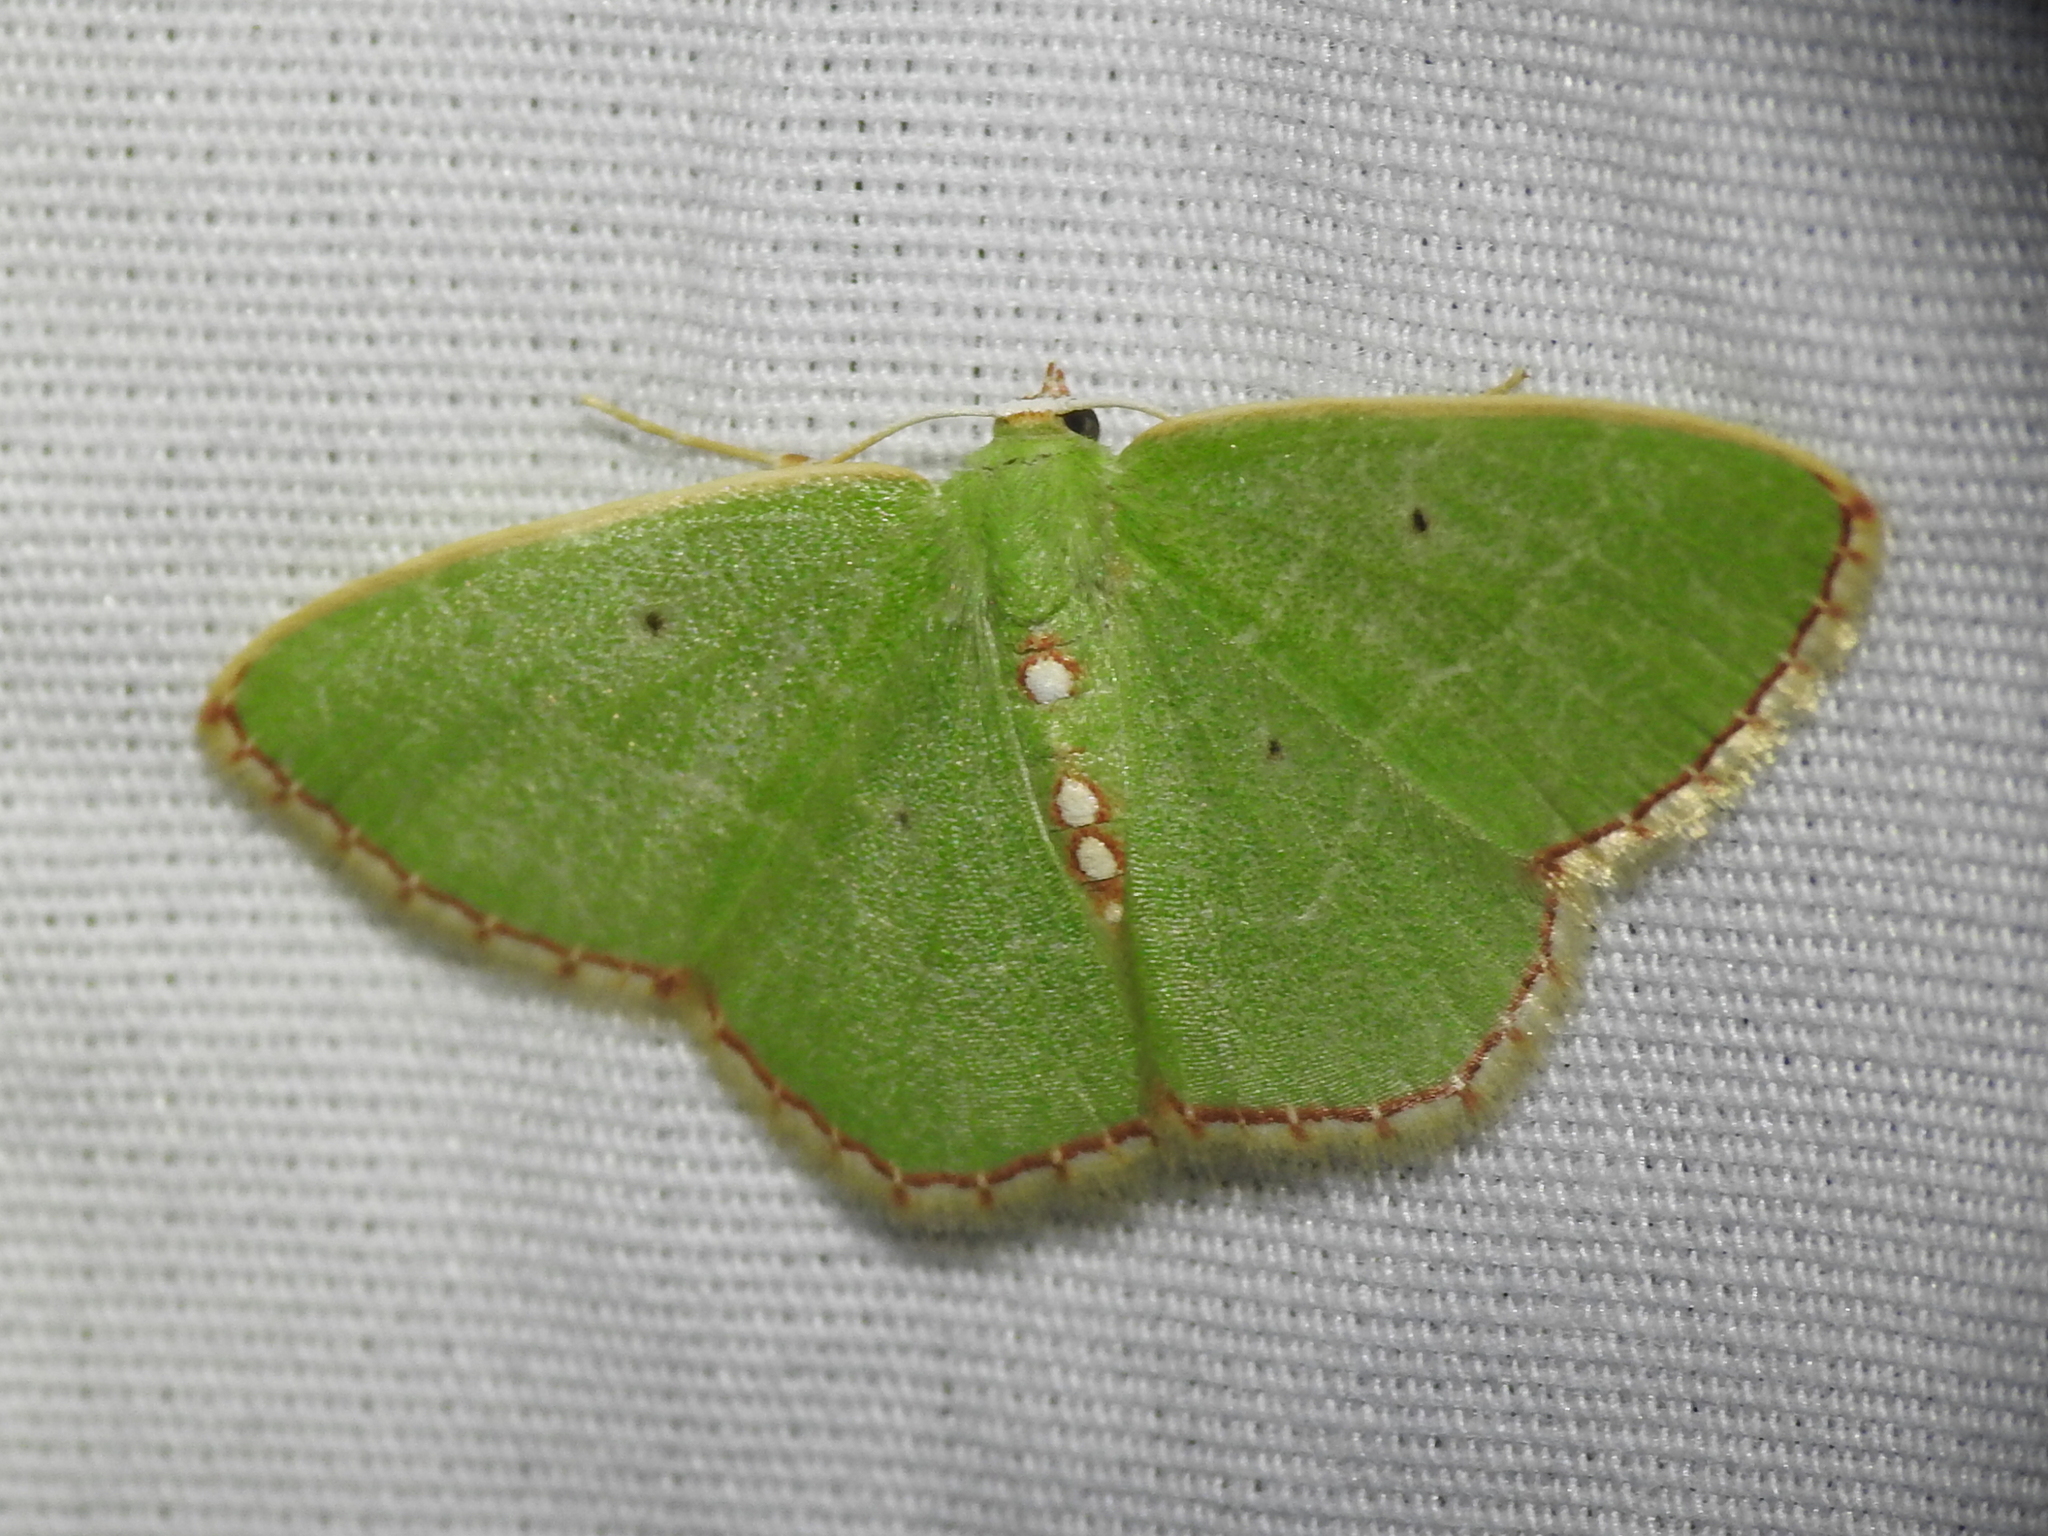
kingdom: Animalia
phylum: Arthropoda
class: Insecta
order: Lepidoptera
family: Geometridae
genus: Nemoria
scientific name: Nemoria lixaria
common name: Red-bordered emerald
